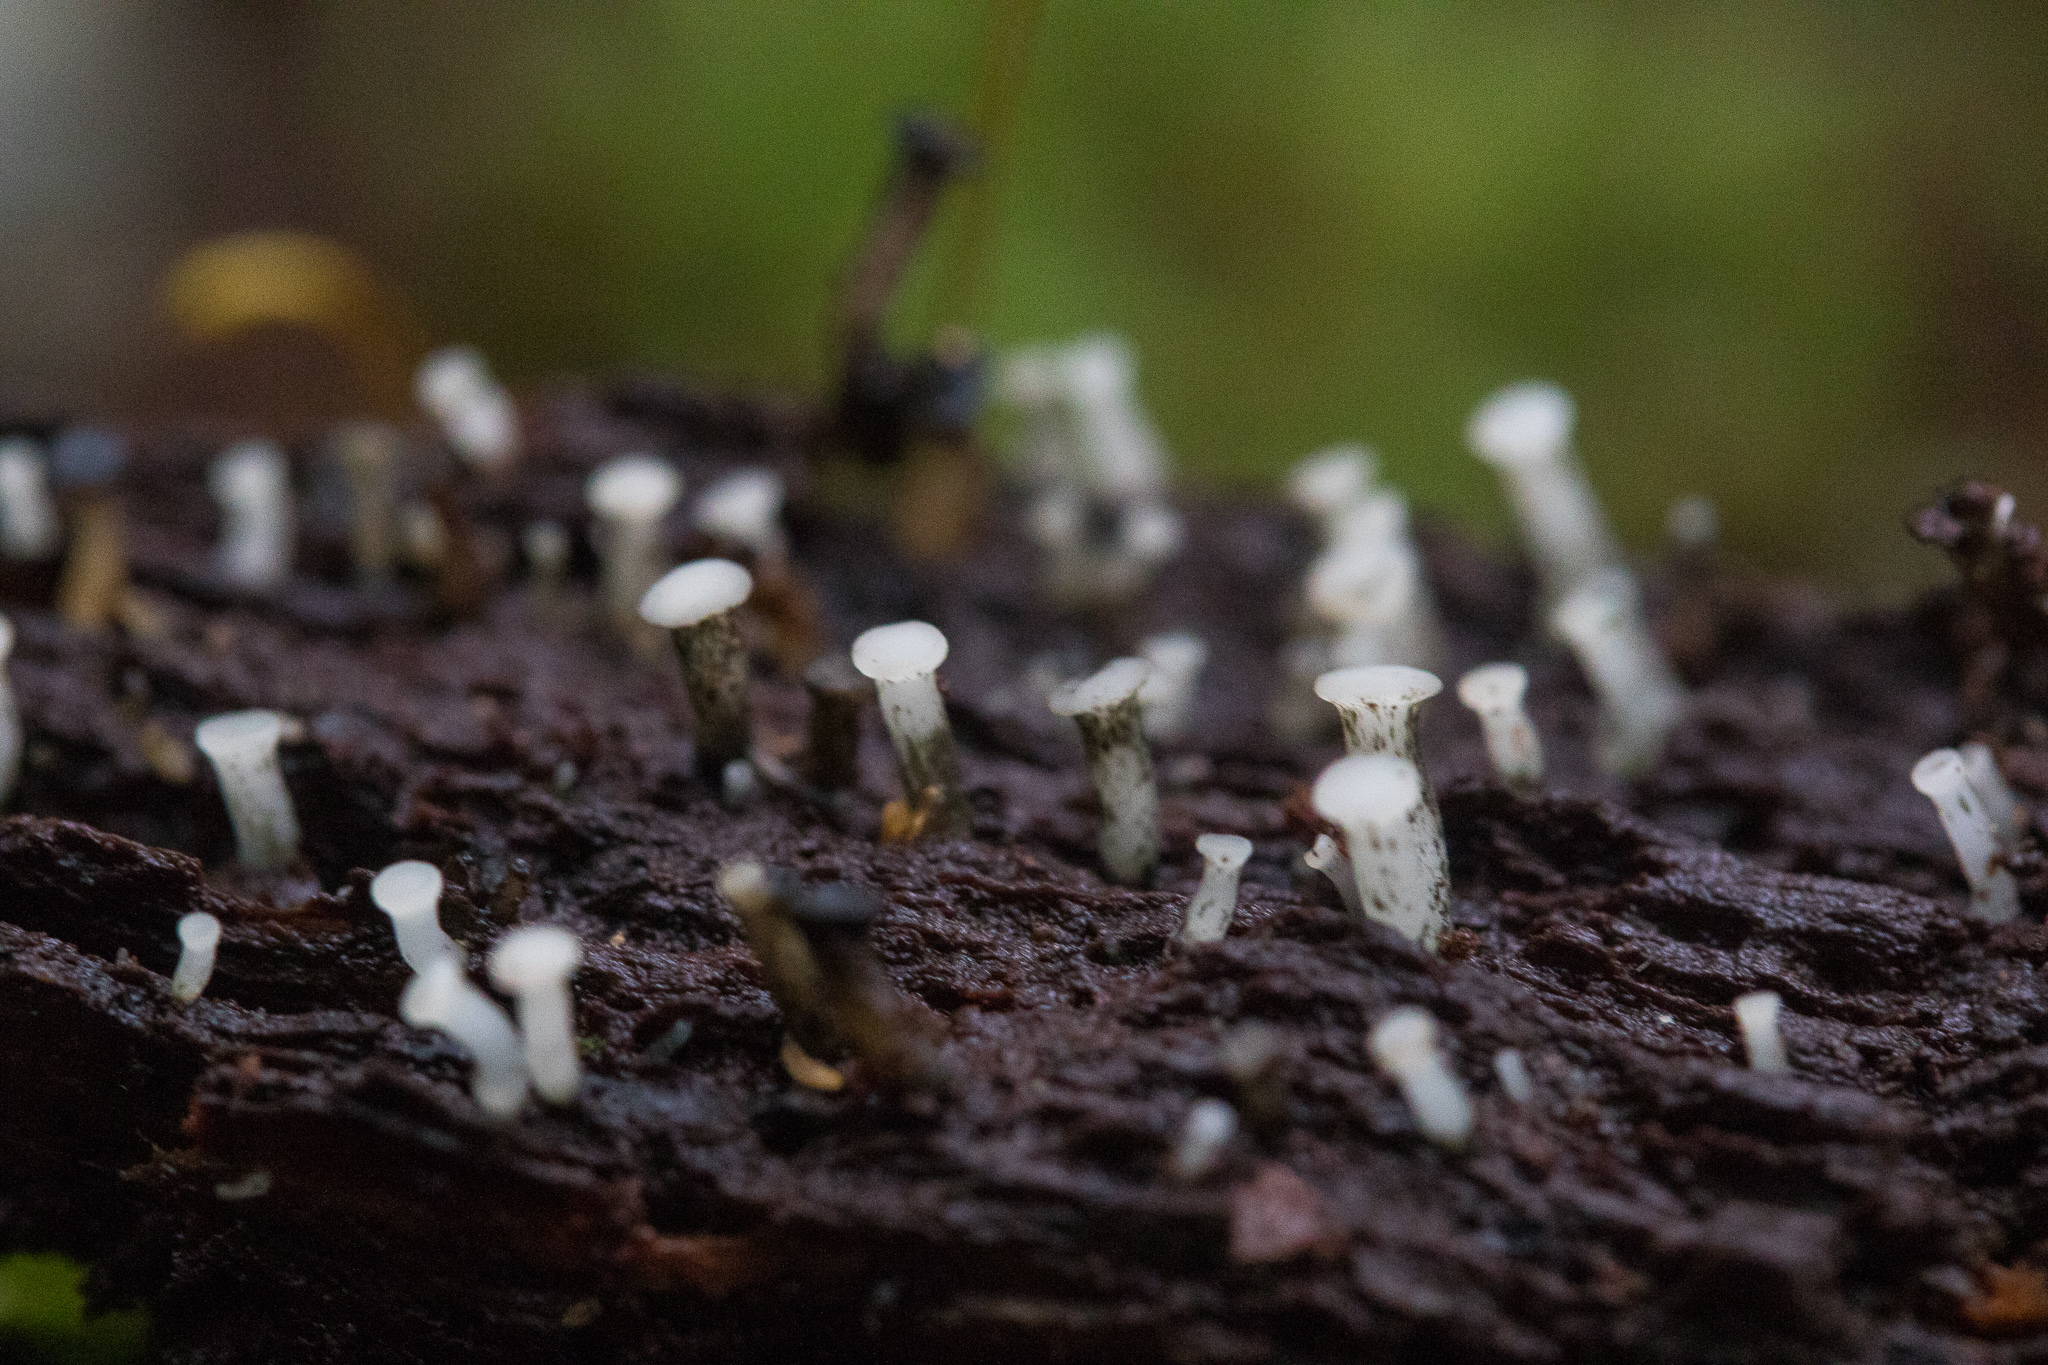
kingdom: Fungi
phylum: Ascomycota
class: Leotiomycetes
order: Helotiales
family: Tricladiaceae
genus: Cudoniella
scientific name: Cudoniella acicularis
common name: Oak pin
